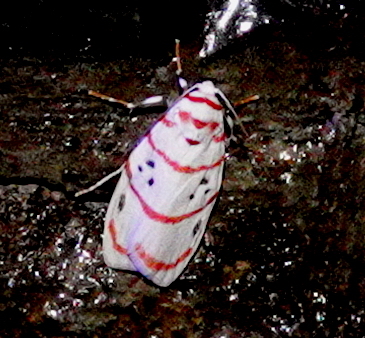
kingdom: Animalia
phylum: Arthropoda
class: Insecta
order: Lepidoptera
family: Erebidae
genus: Cyana
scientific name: Cyana subornata
